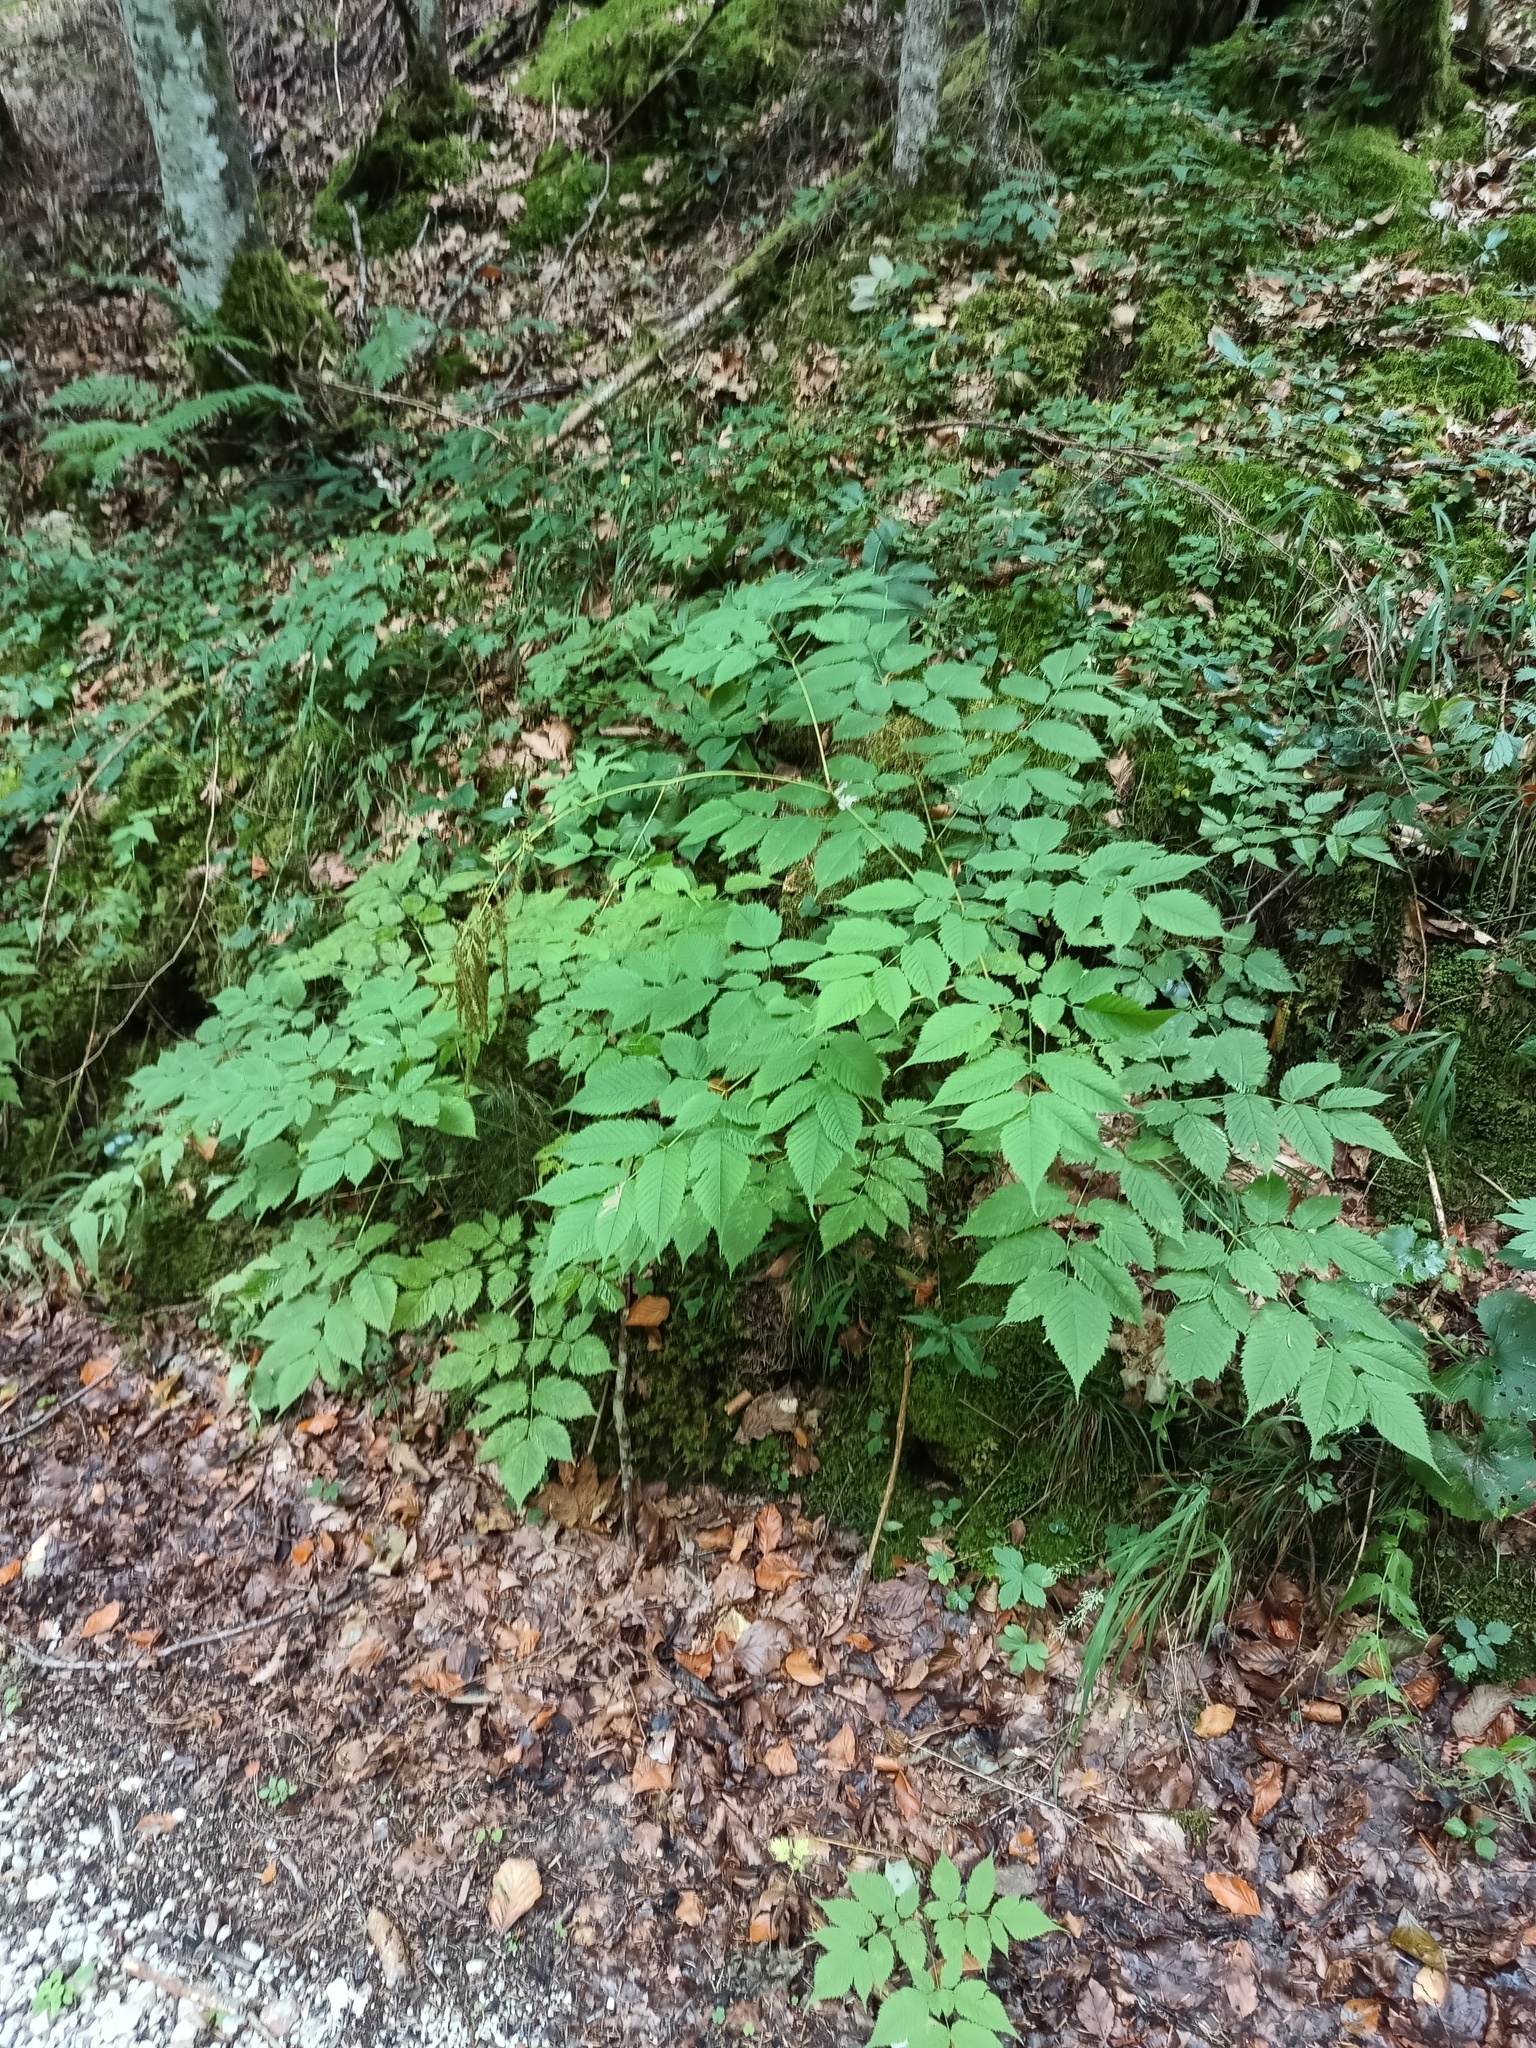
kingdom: Plantae
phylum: Tracheophyta
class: Magnoliopsida
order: Rosales
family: Rosaceae
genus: Aruncus
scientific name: Aruncus dioicus
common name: Buck's-beard
